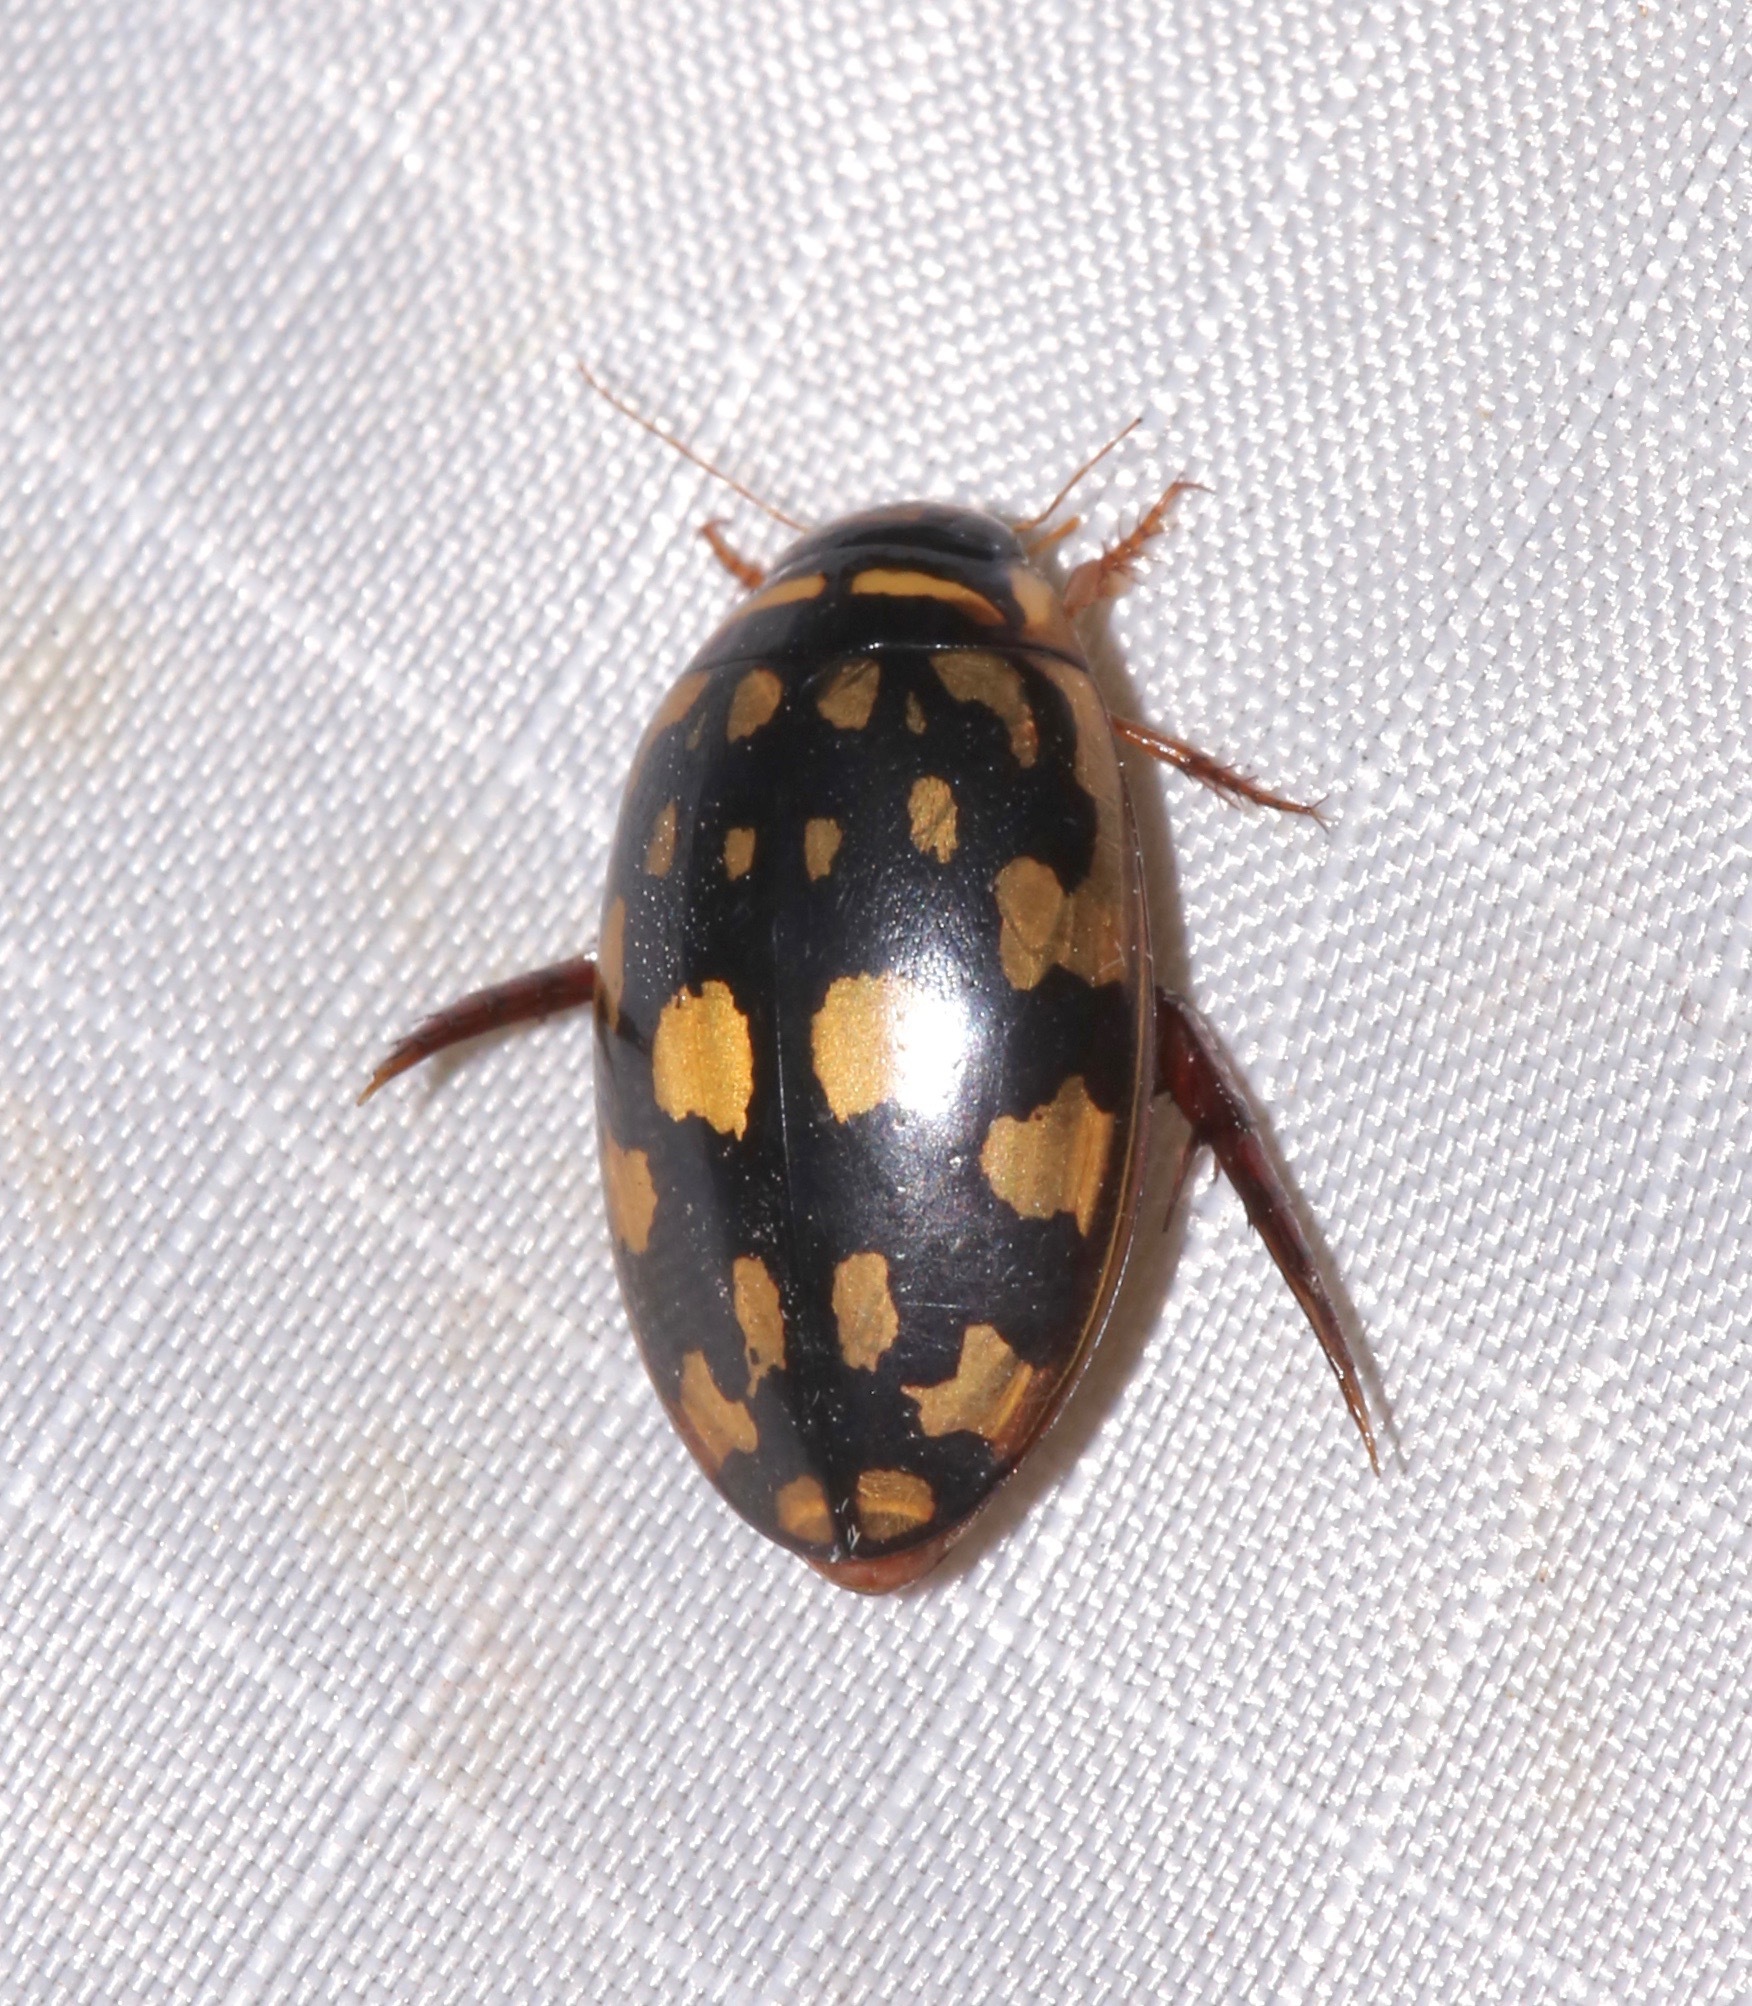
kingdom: Animalia
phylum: Arthropoda
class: Insecta
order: Coleoptera
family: Dytiscidae
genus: Thermonectus
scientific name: Thermonectus marmoratus
